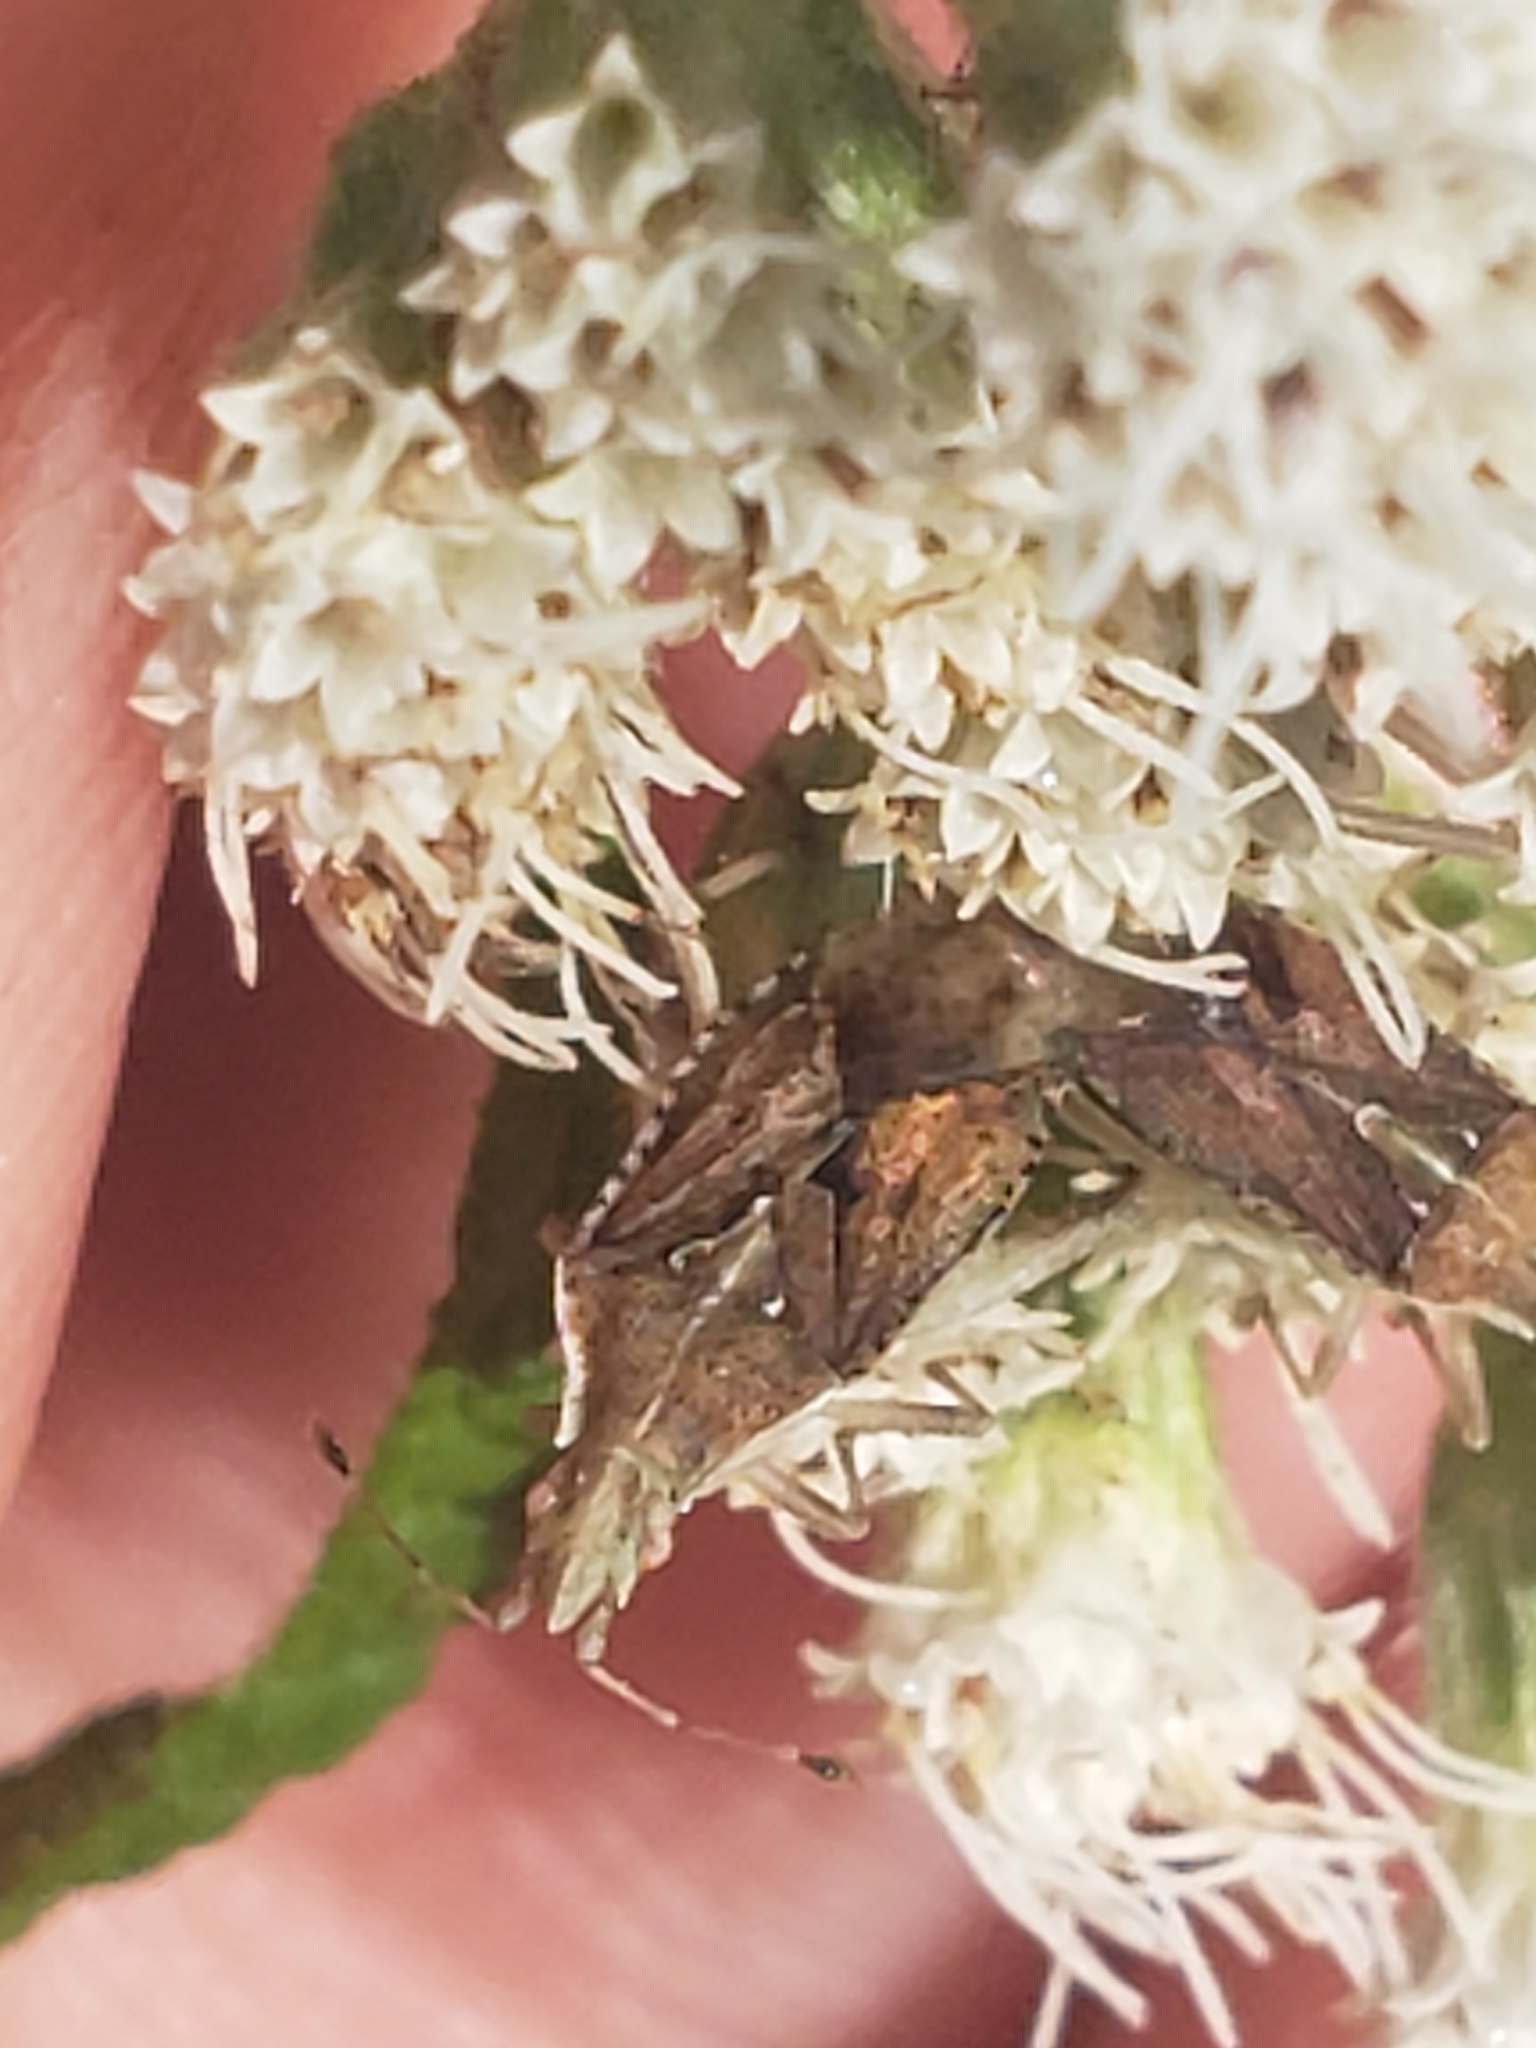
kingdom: Animalia
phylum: Arthropoda
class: Insecta
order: Hemiptera
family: Rhopalidae
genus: Harmostes
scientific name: Harmostes fraterculus
